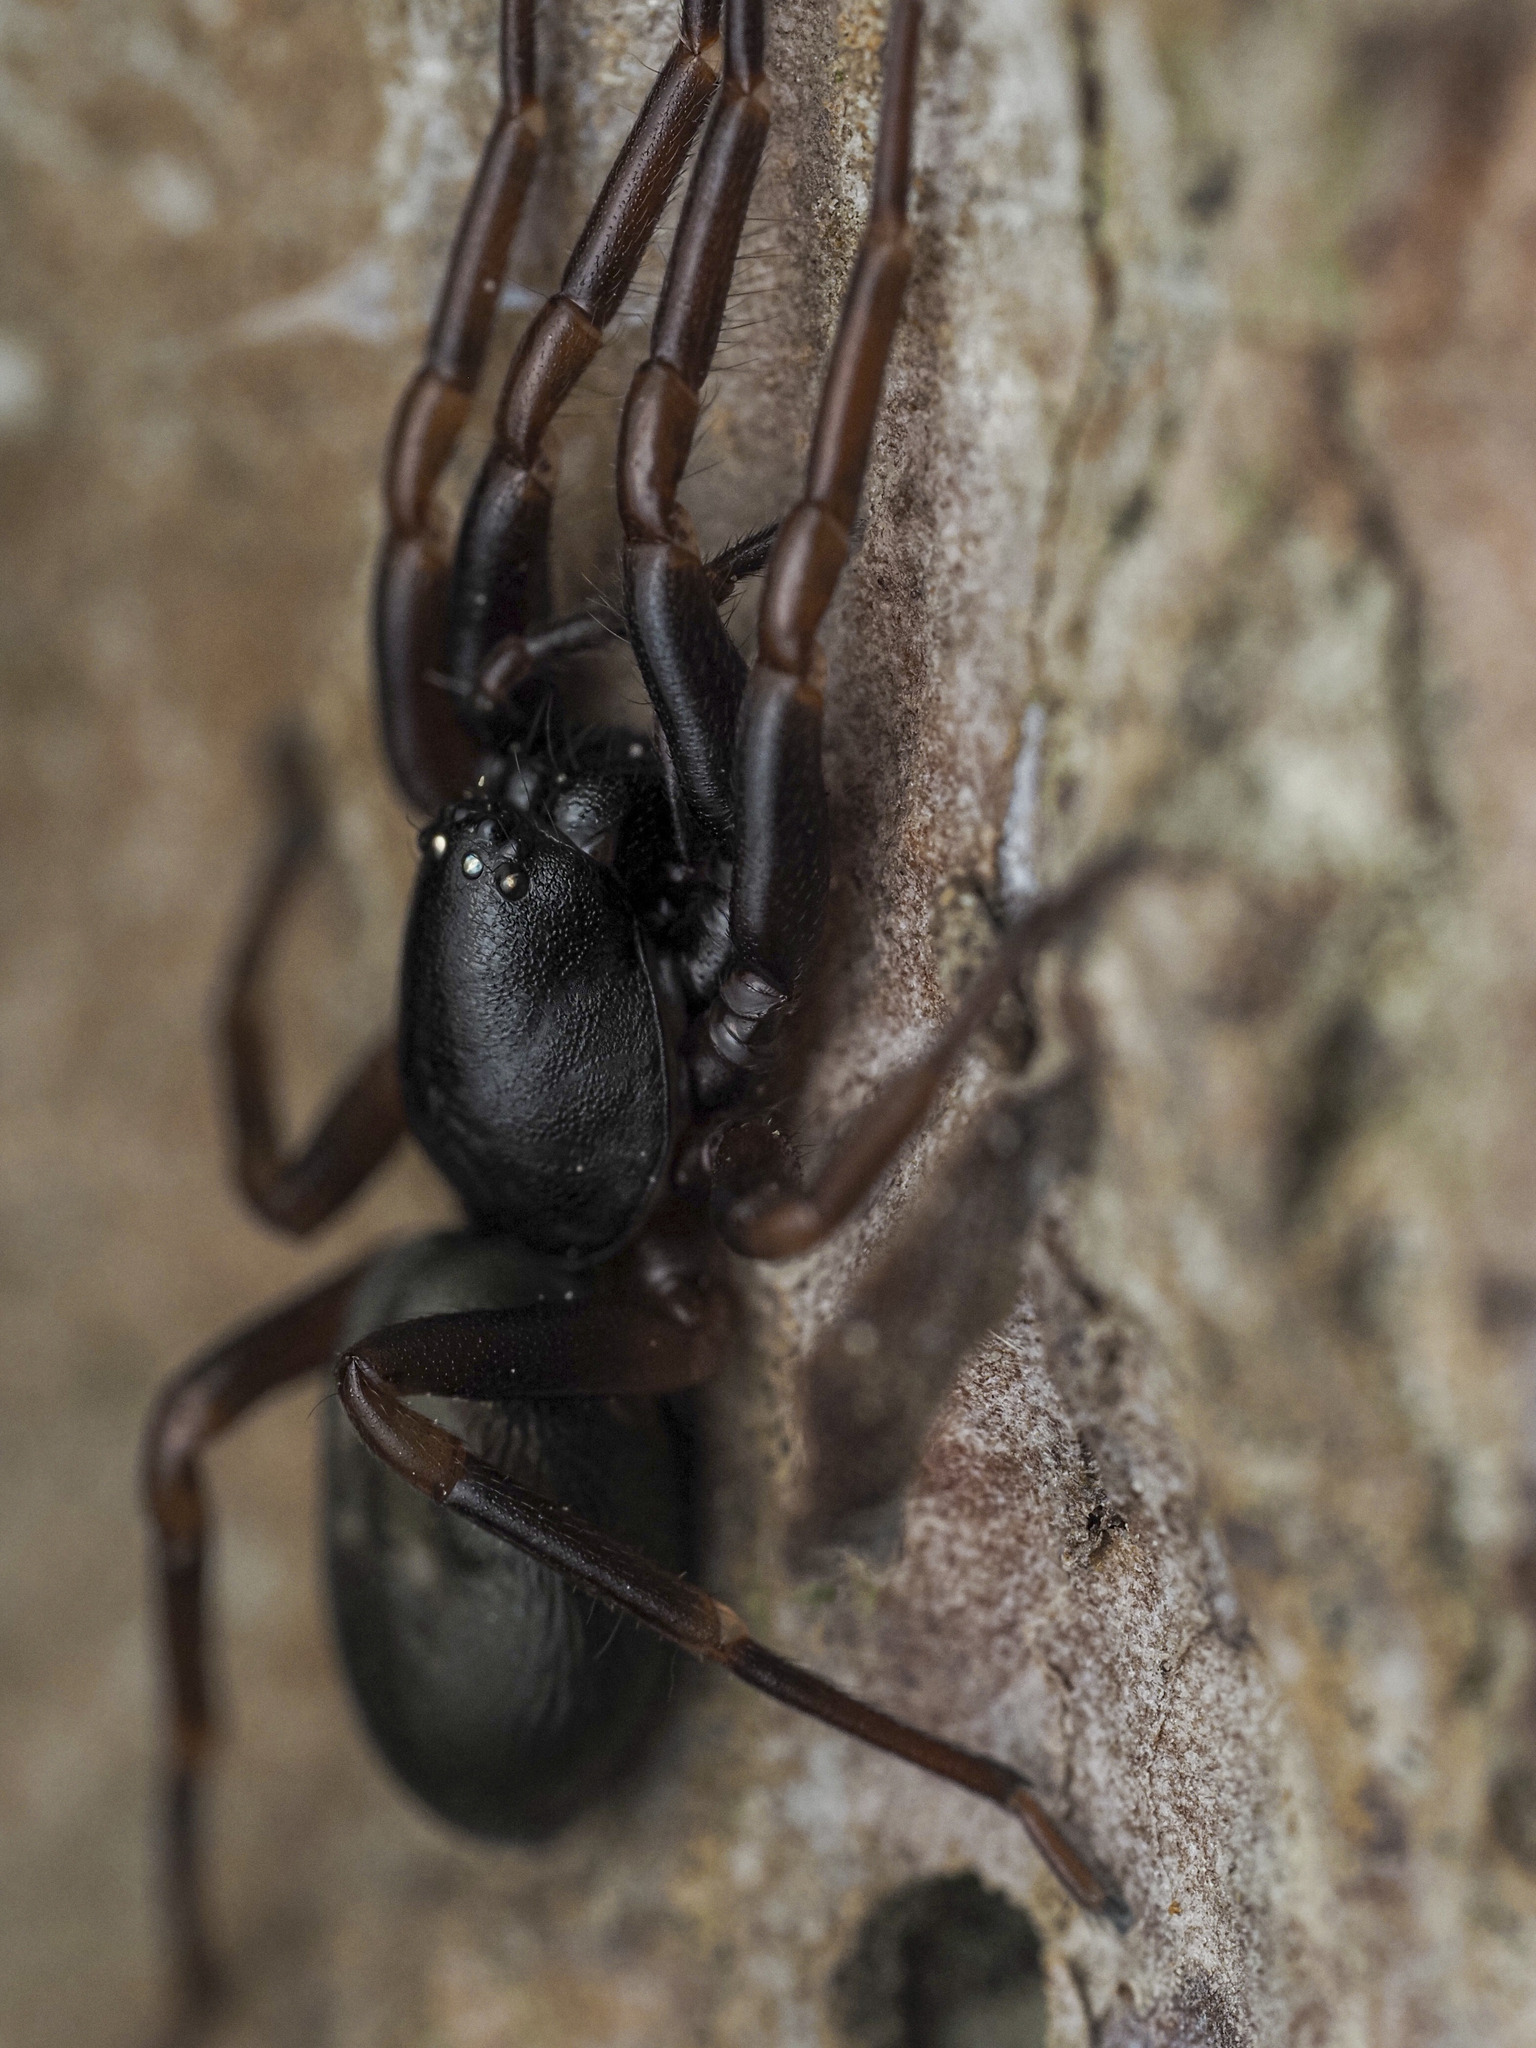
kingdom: Animalia
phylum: Arthropoda
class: Arachnida
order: Araneae
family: Trachelidae
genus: Cetonana
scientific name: Cetonana laticeps
